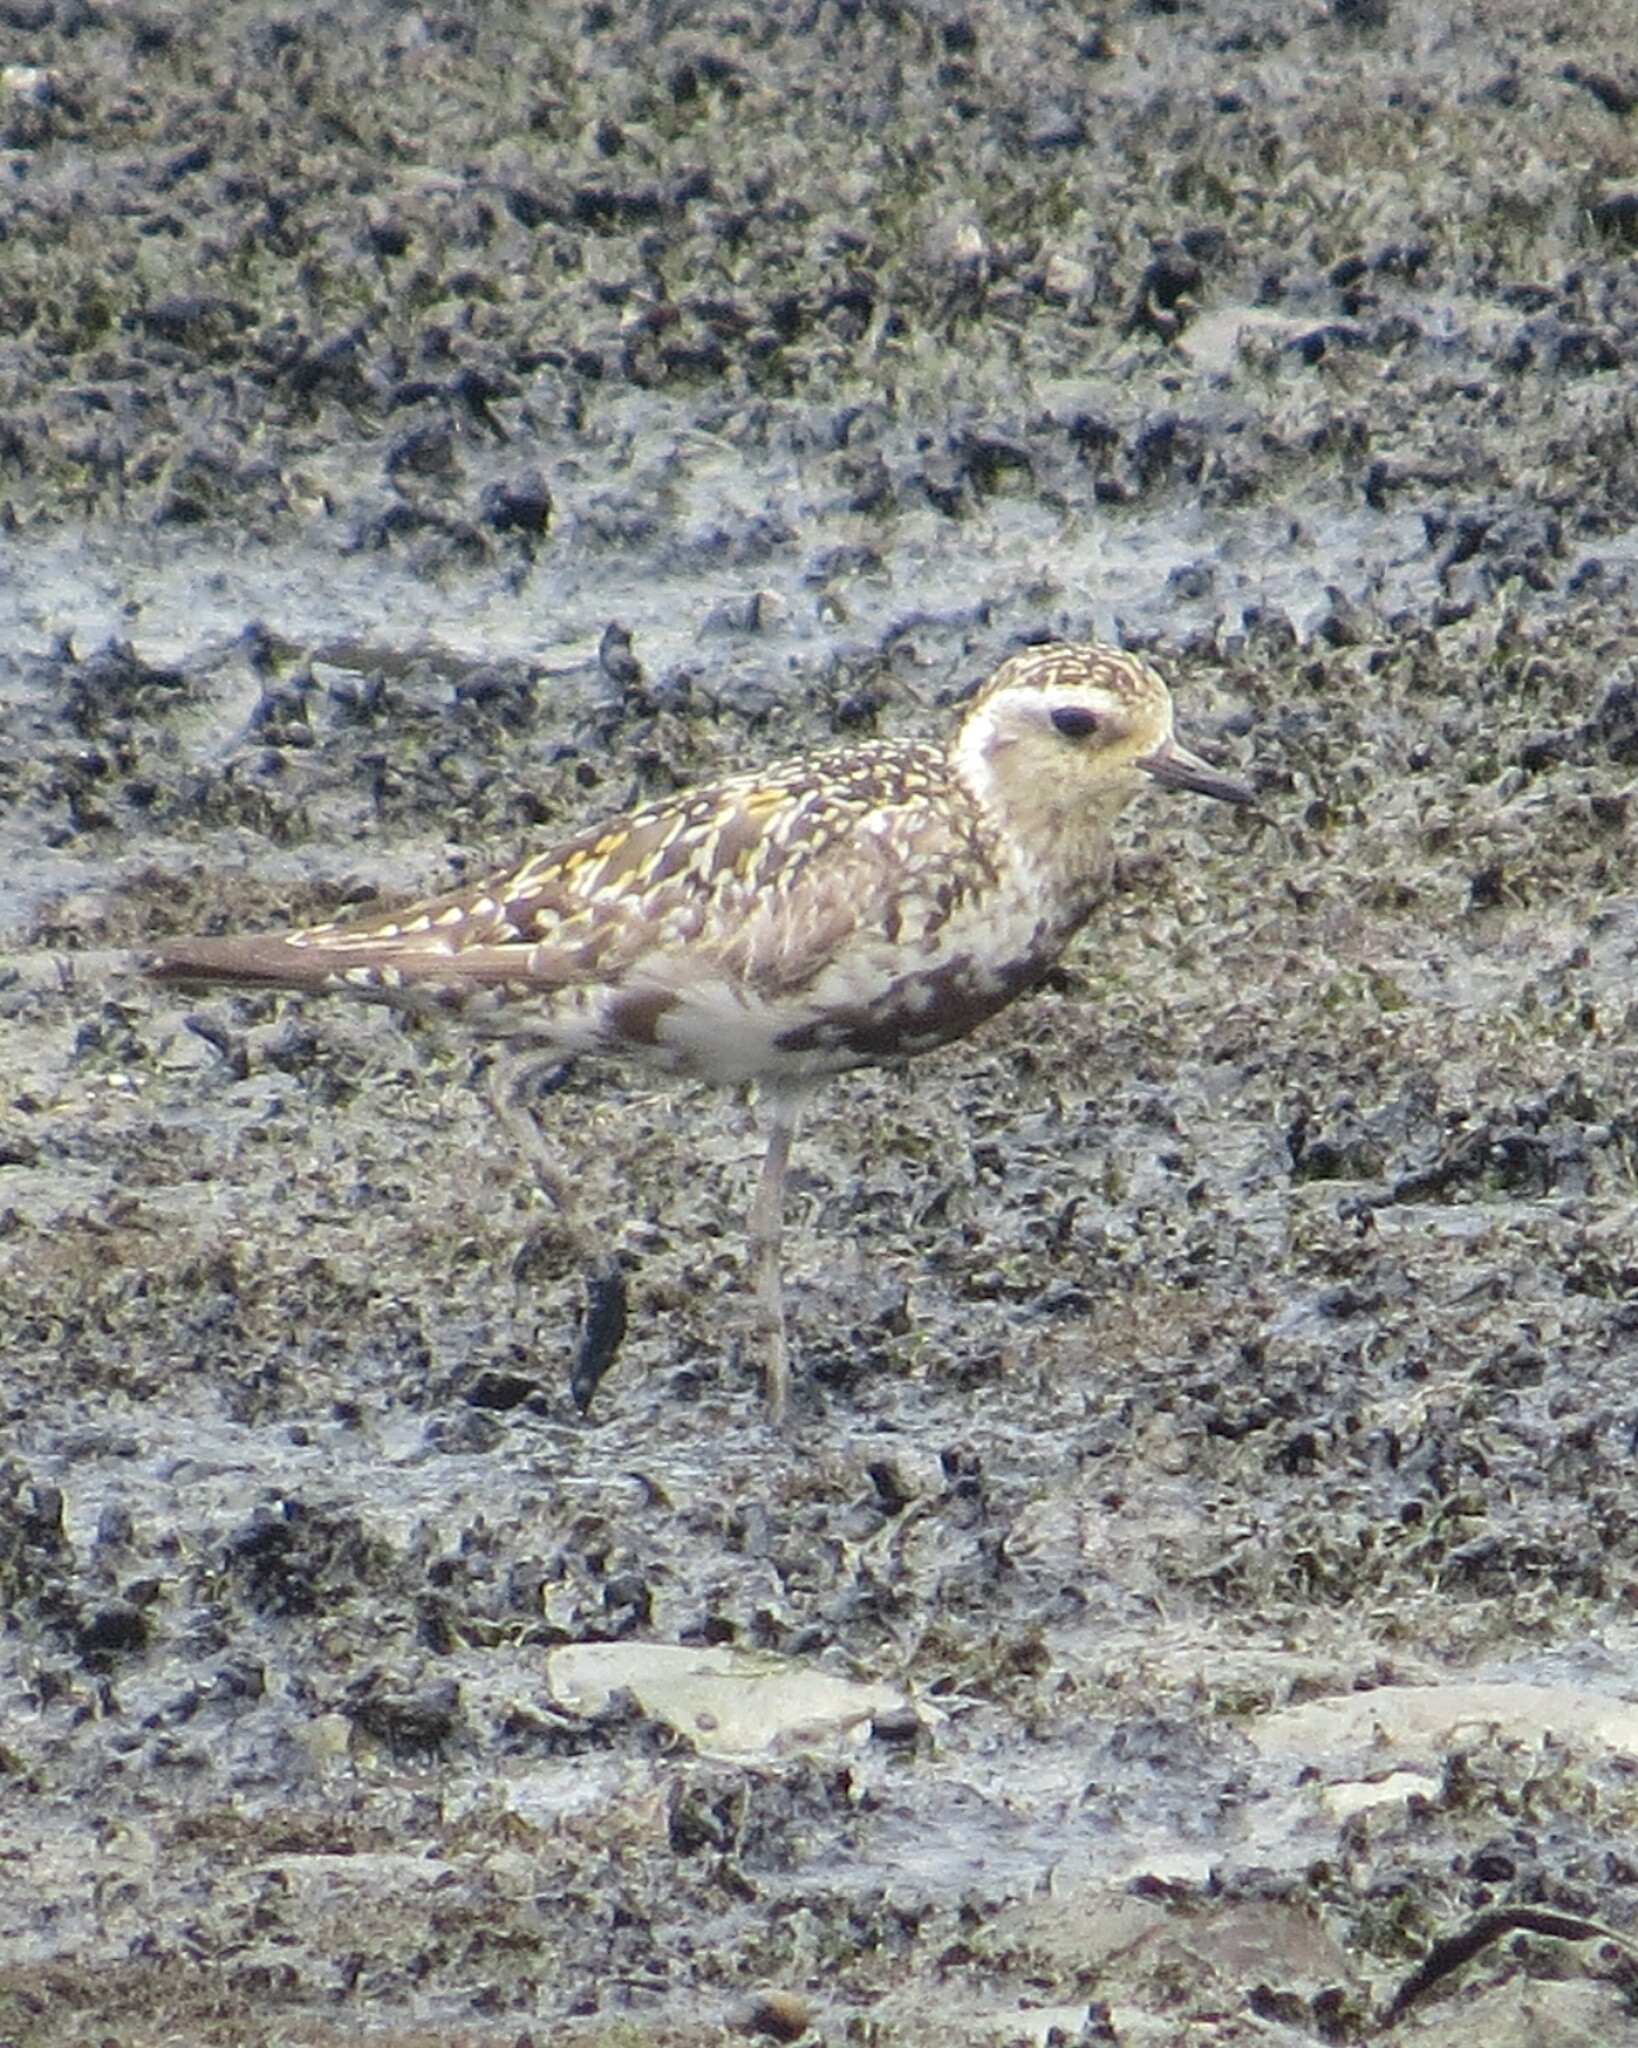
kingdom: Animalia
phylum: Chordata
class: Aves
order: Charadriiformes
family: Charadriidae
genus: Pluvialis
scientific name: Pluvialis fulva
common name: Pacific golden plover
